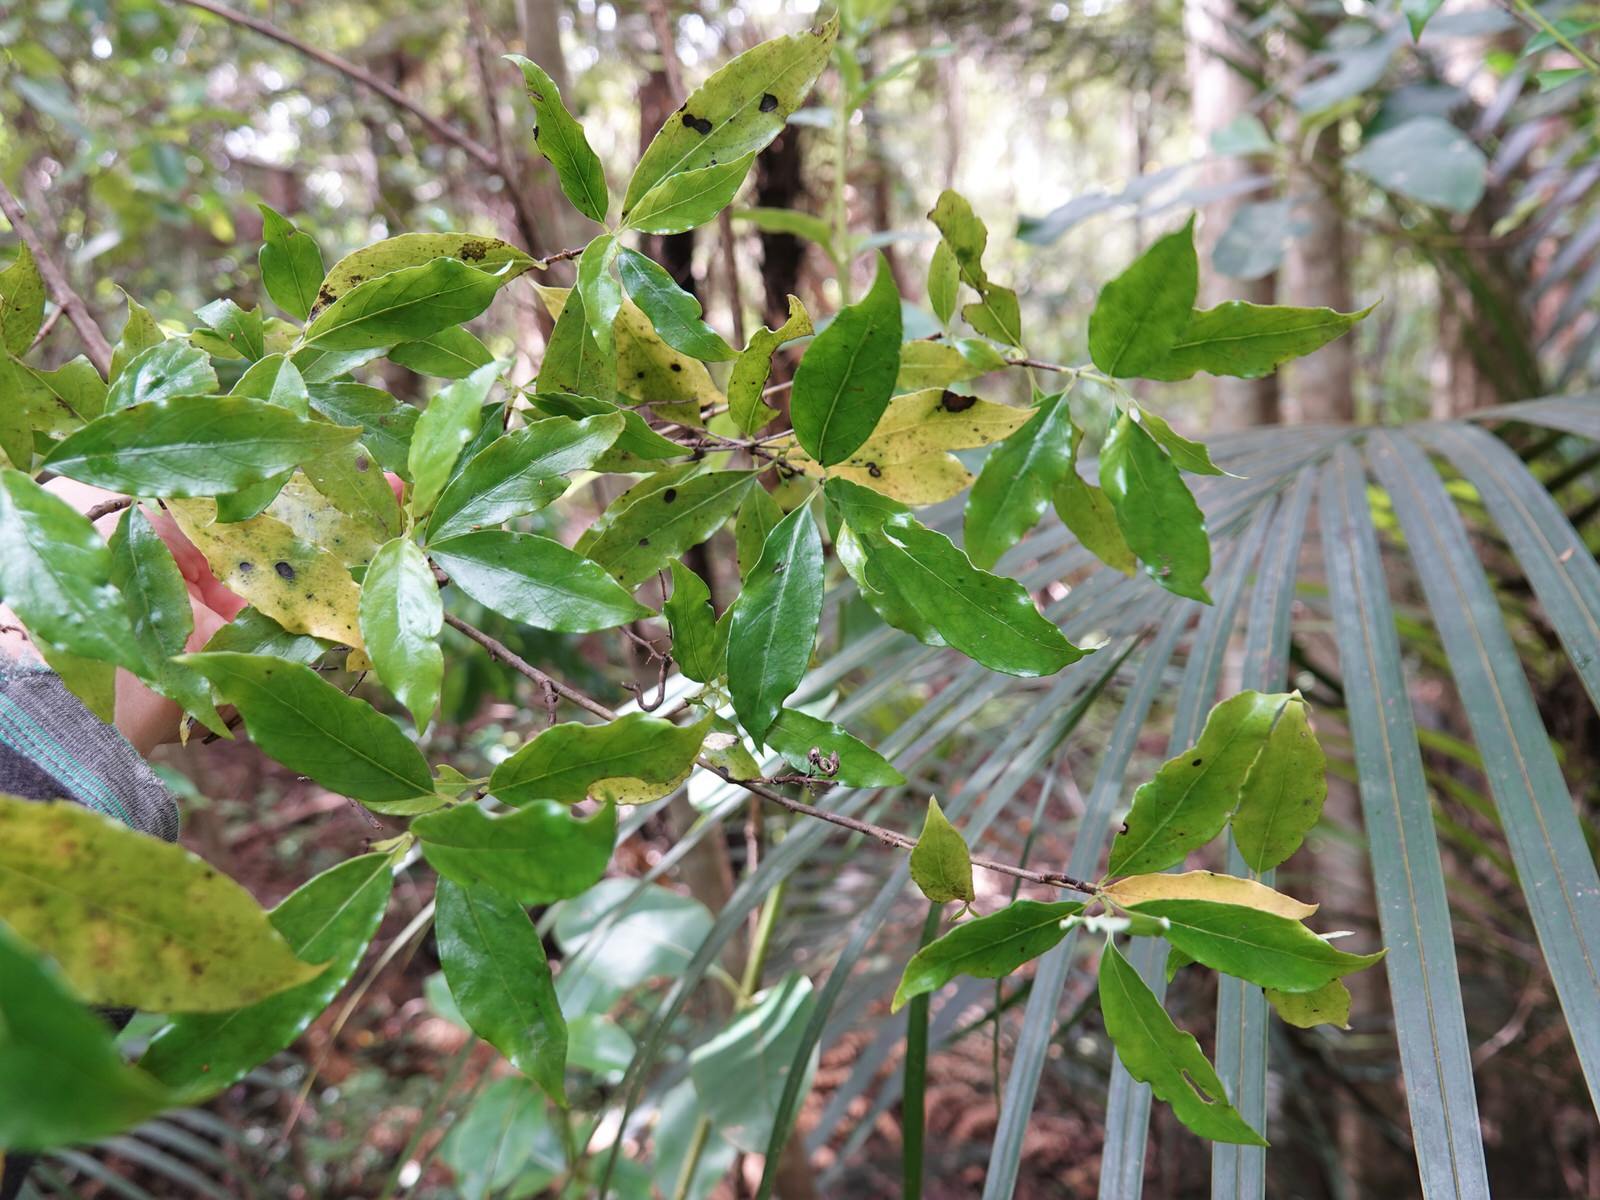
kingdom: Plantae
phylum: Tracheophyta
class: Magnoliopsida
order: Myrtales
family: Myrtaceae
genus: Syzygium
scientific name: Syzygium maire
